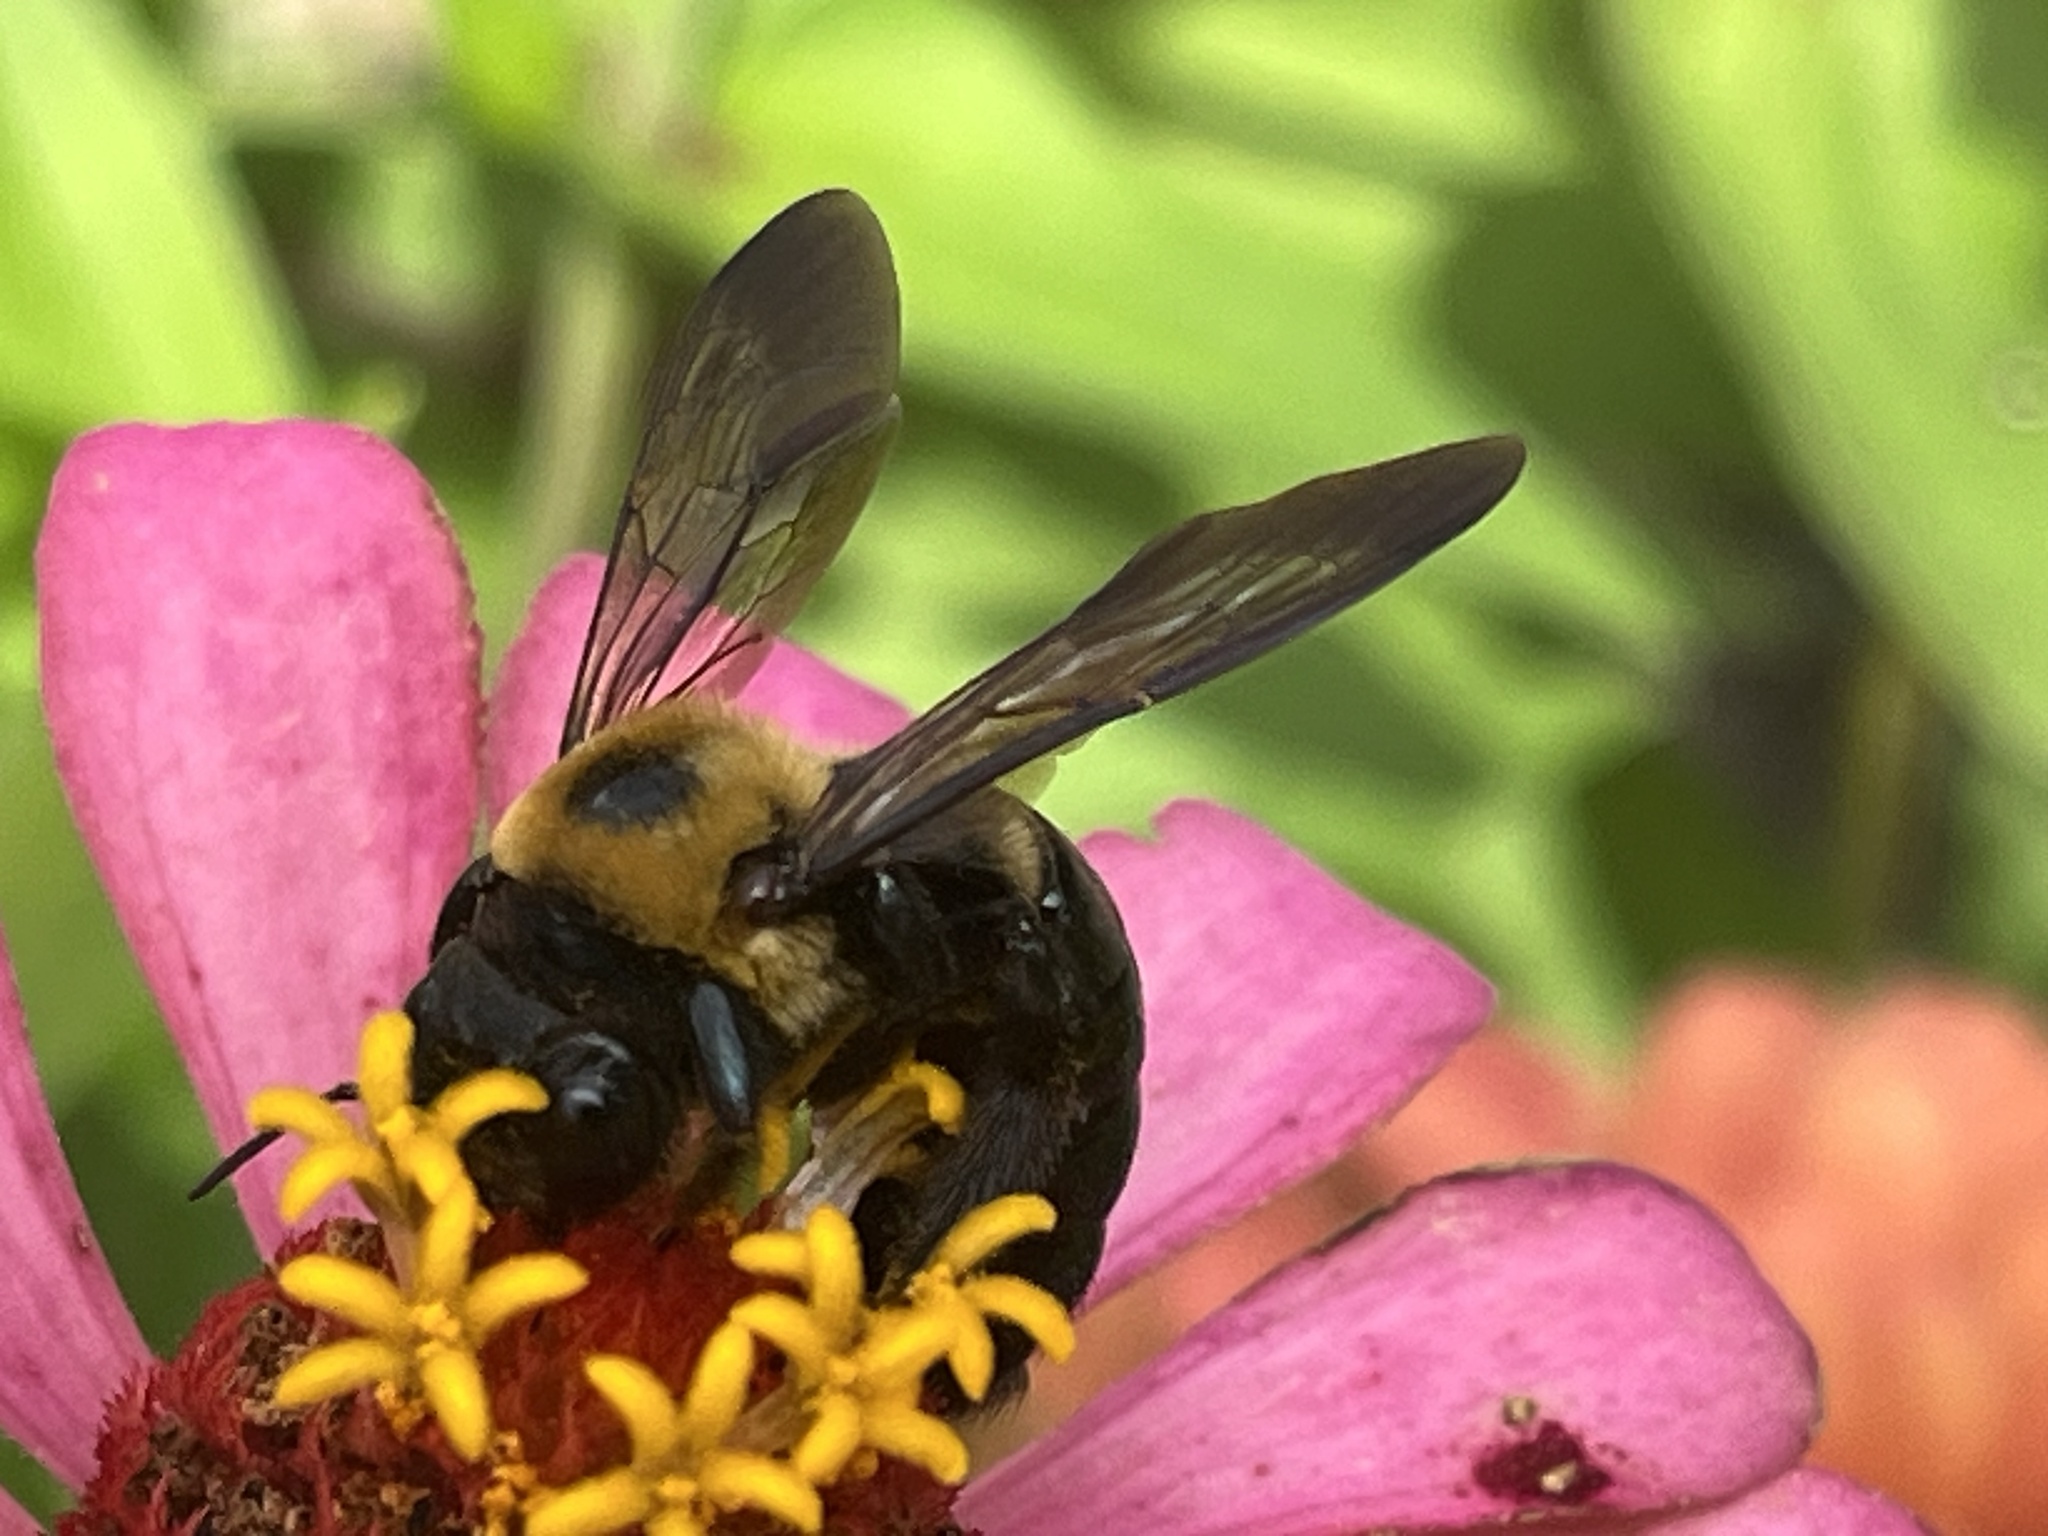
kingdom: Animalia
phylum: Arthropoda
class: Insecta
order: Hymenoptera
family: Apidae
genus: Xylocopa
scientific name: Xylocopa virginica
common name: Carpenter bee
